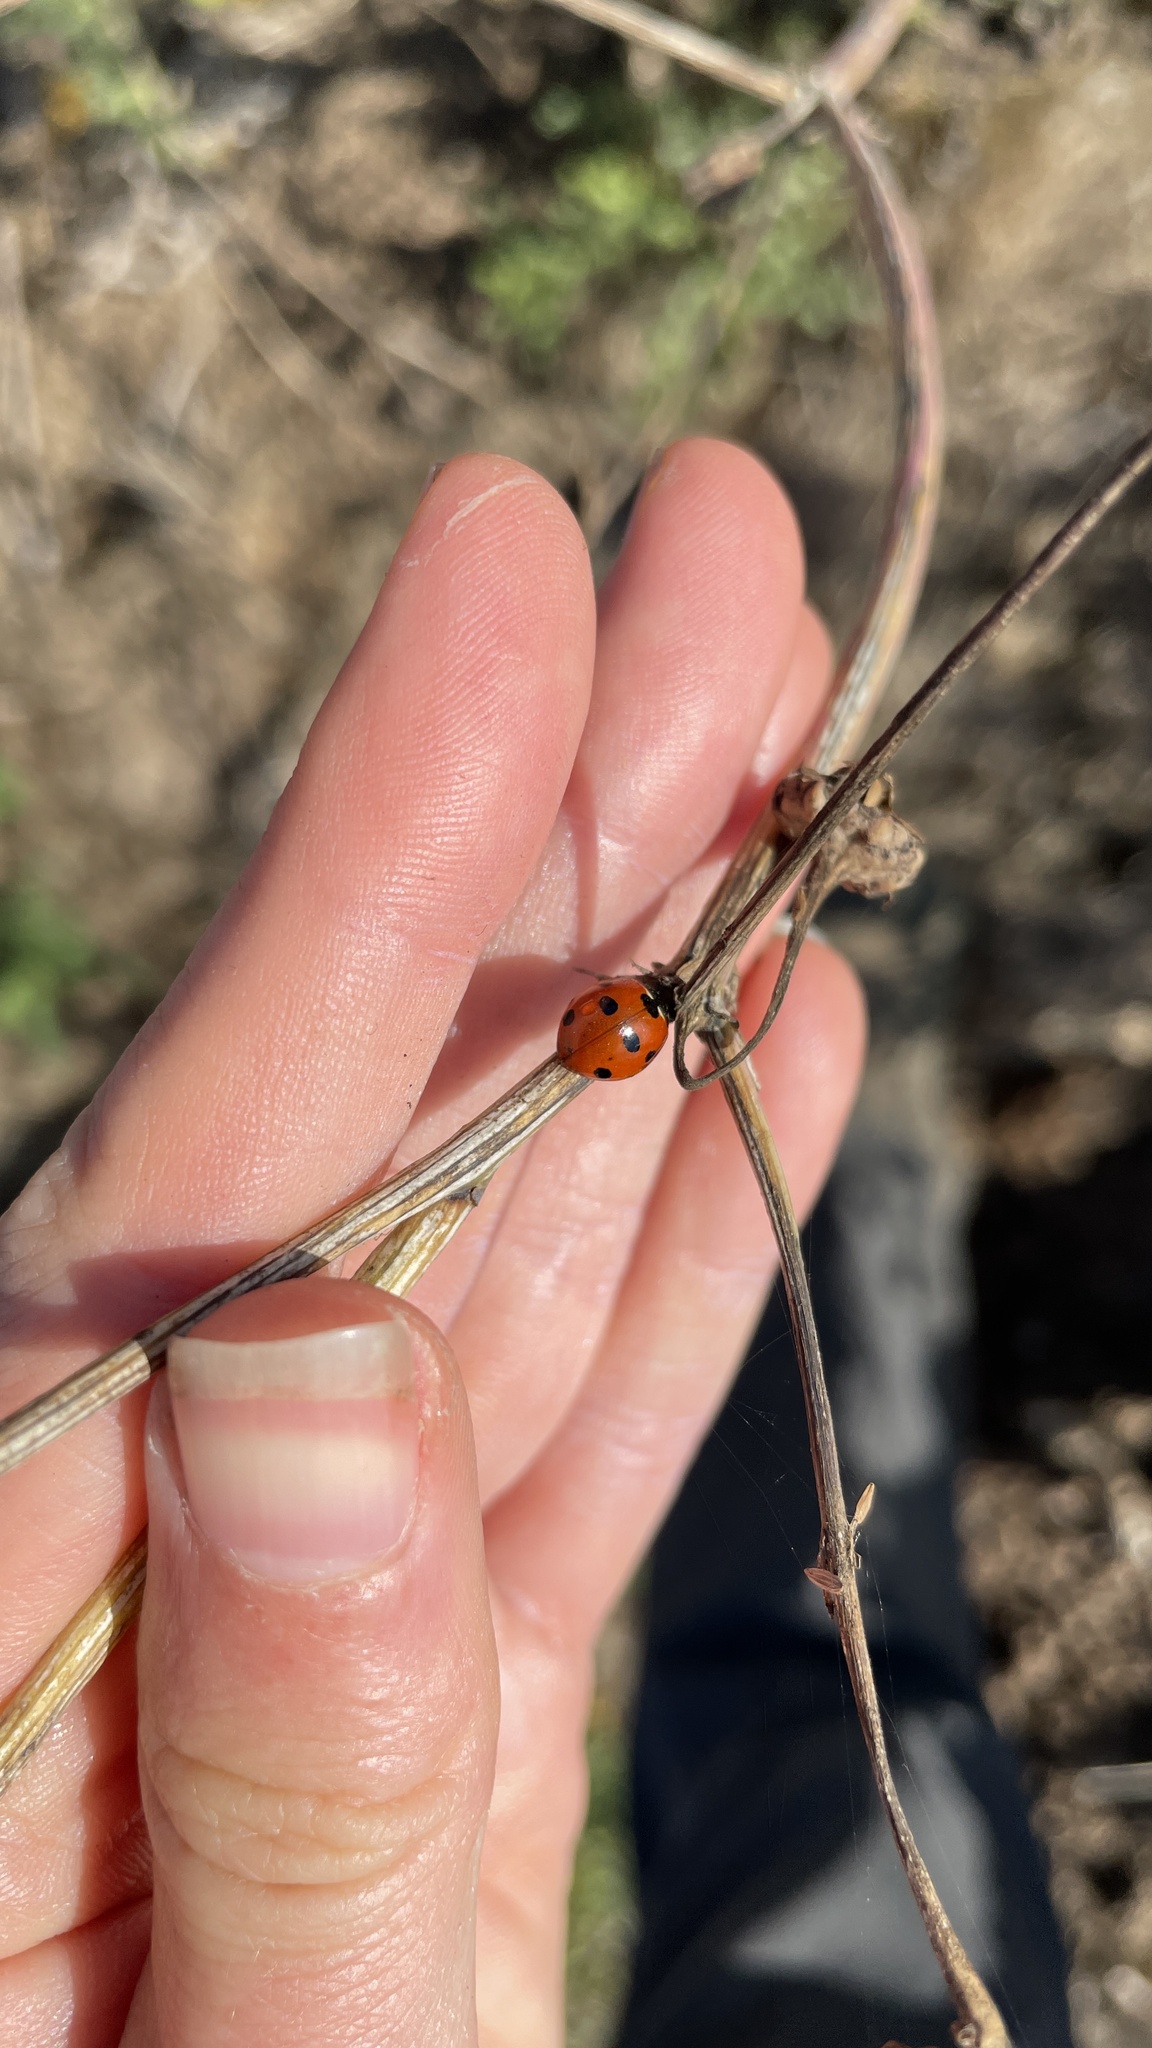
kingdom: Animalia
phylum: Arthropoda
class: Insecta
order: Coleoptera
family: Coccinellidae
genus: Coccinella
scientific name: Coccinella septempunctata
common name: Sevenspotted lady beetle
